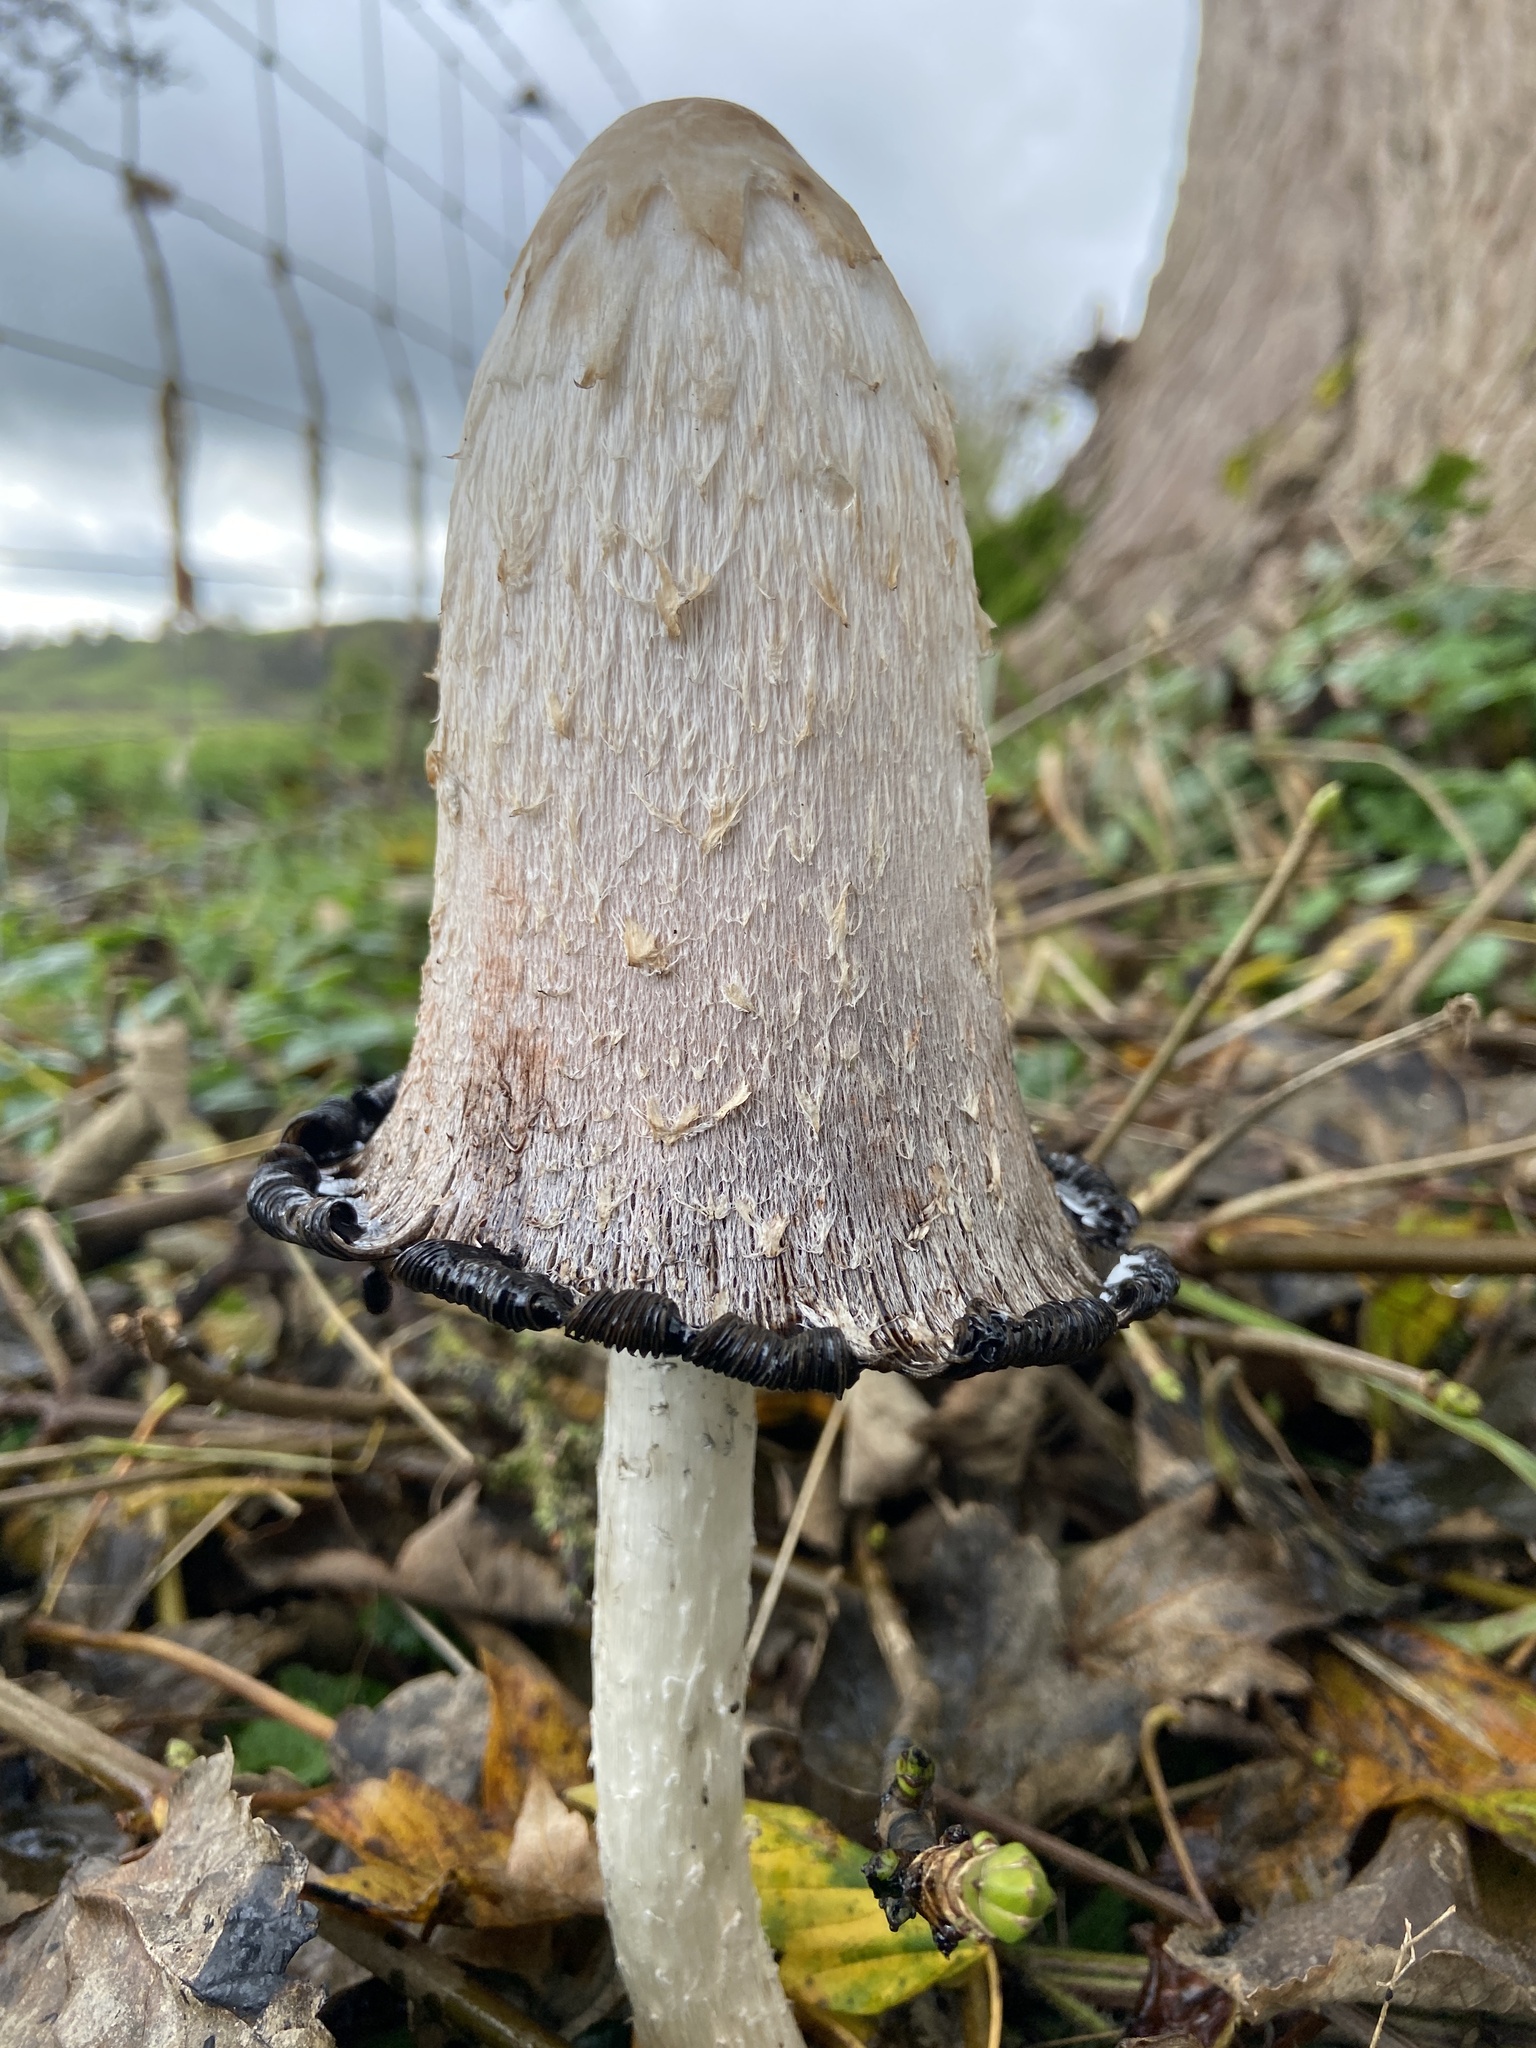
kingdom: Fungi
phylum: Basidiomycota
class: Agaricomycetes
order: Agaricales
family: Agaricaceae
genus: Coprinus
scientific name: Coprinus comatus
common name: Lawyer's wig
